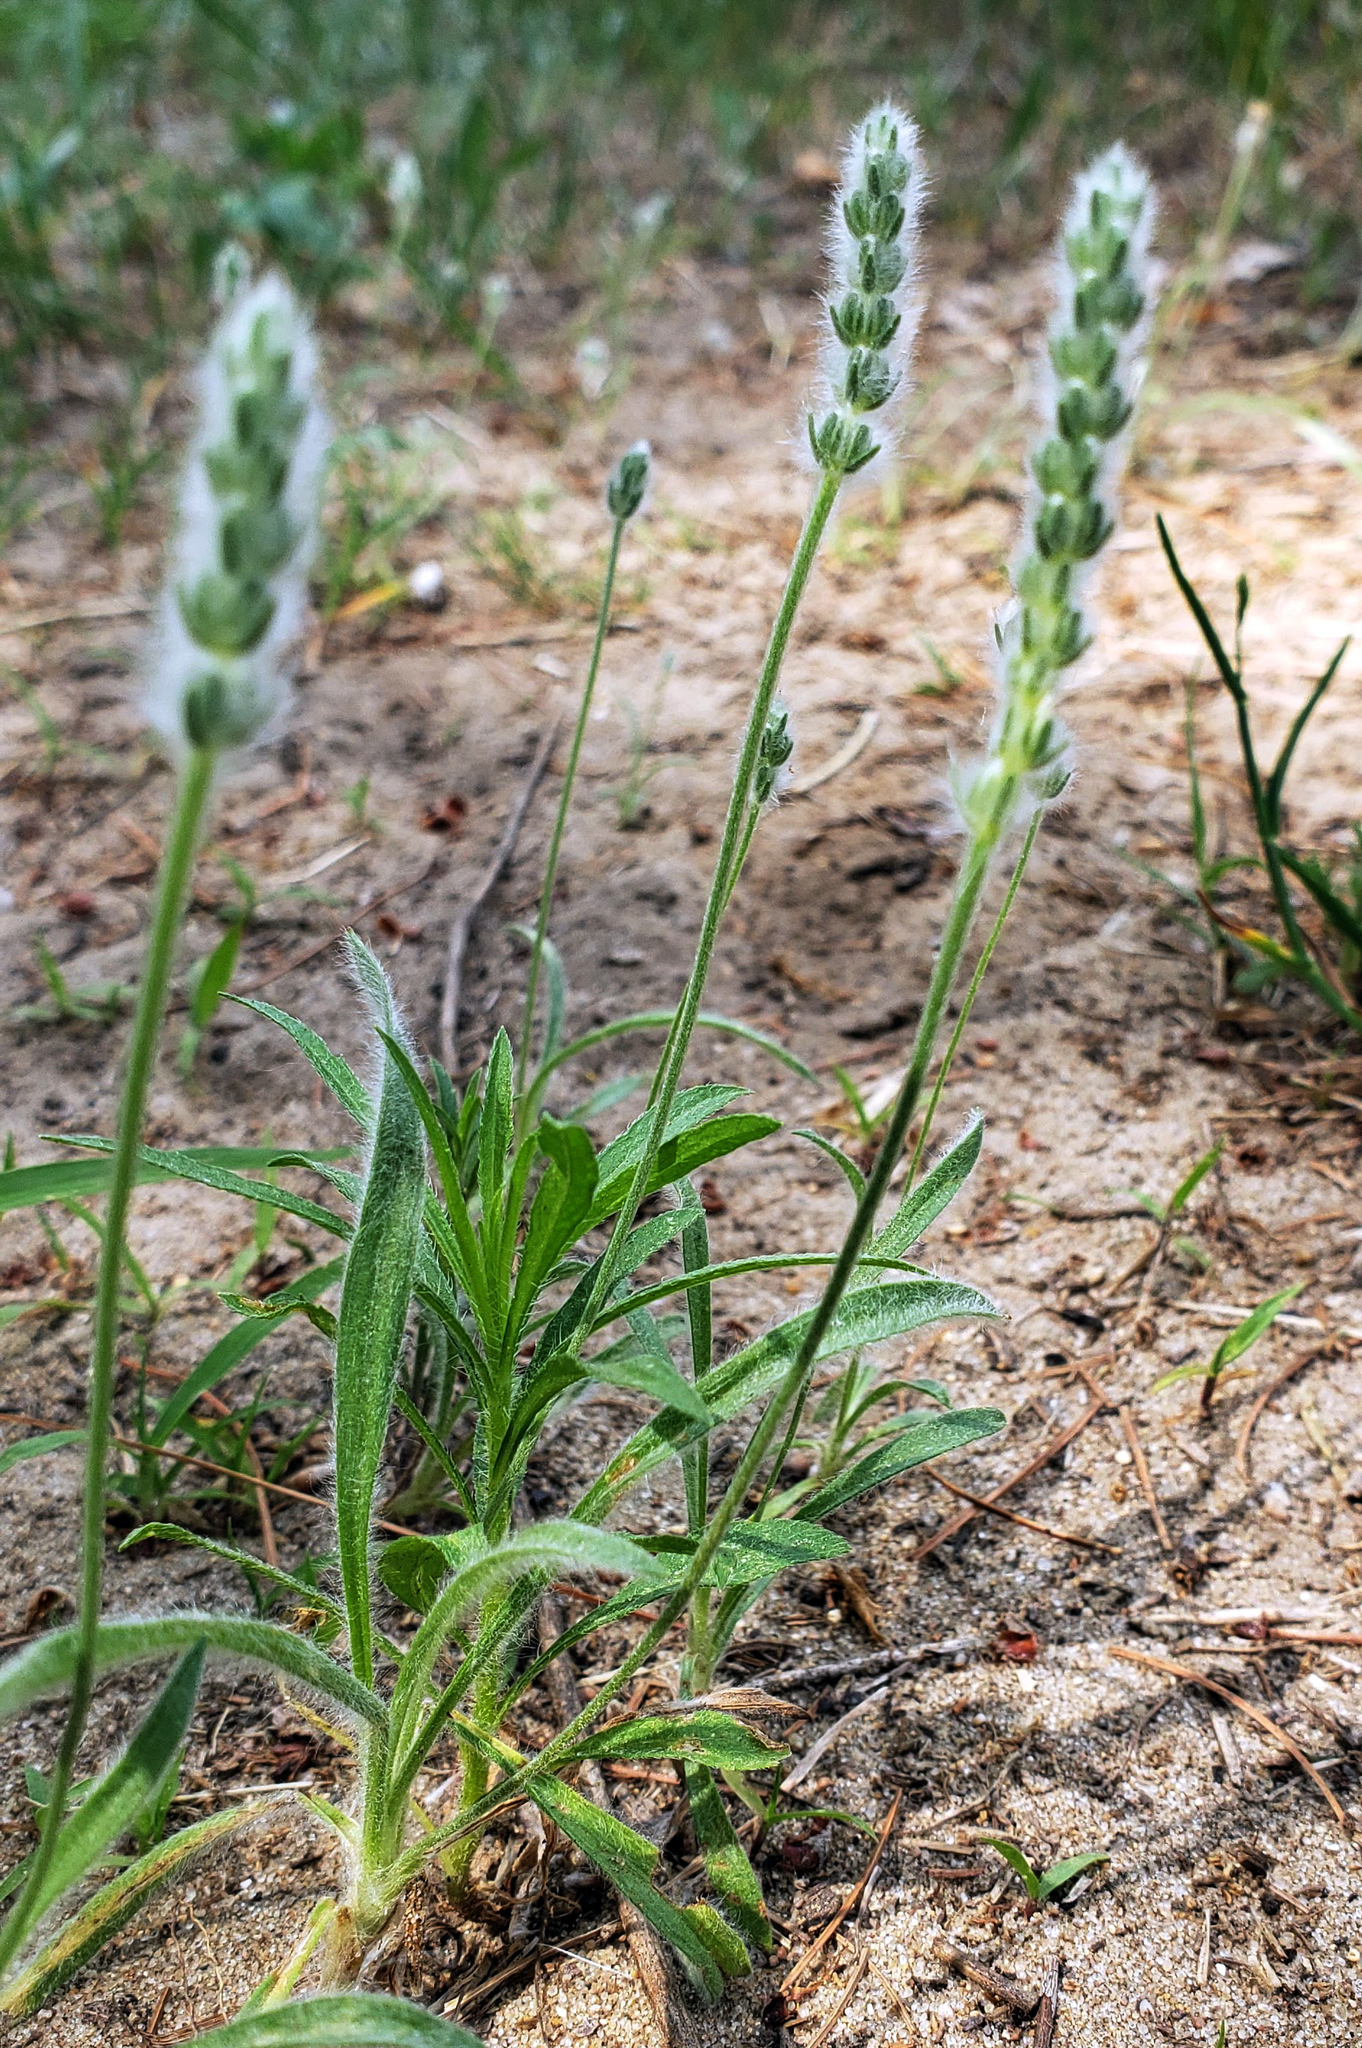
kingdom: Plantae
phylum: Tracheophyta
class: Magnoliopsida
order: Lamiales
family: Plantaginaceae
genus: Plantago
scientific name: Plantago patagonica
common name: Patagonia indian-wheat
